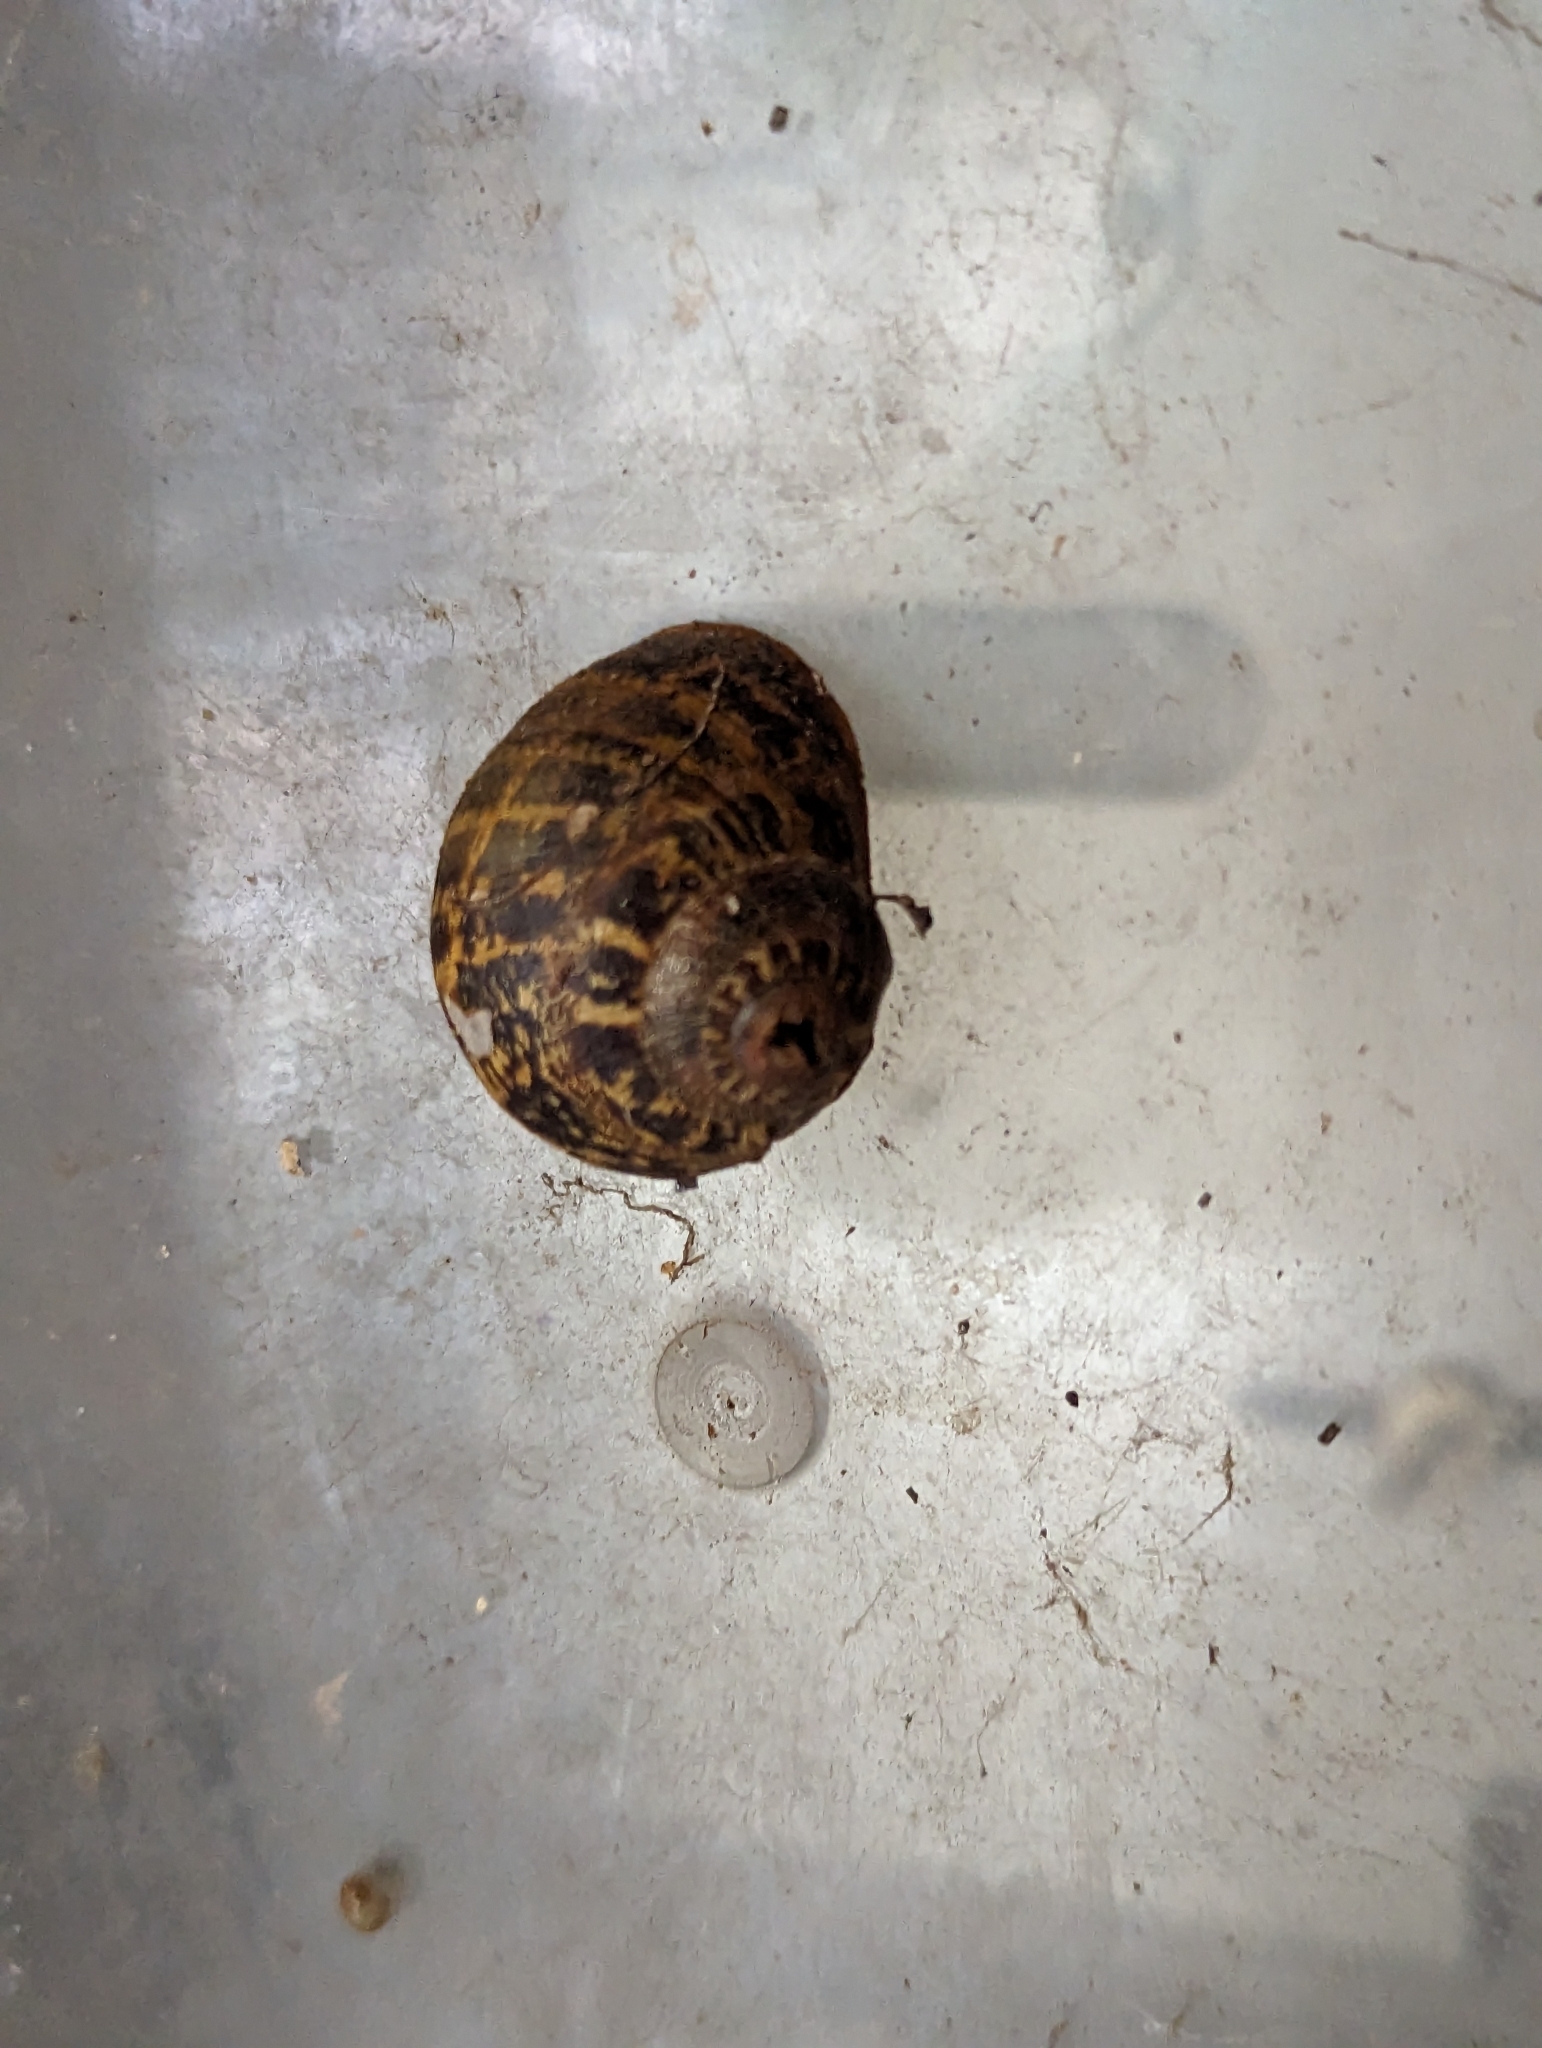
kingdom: Animalia
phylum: Mollusca
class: Gastropoda
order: Stylommatophora
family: Helicidae
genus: Cornu
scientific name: Cornu aspersum
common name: Brown garden snail
